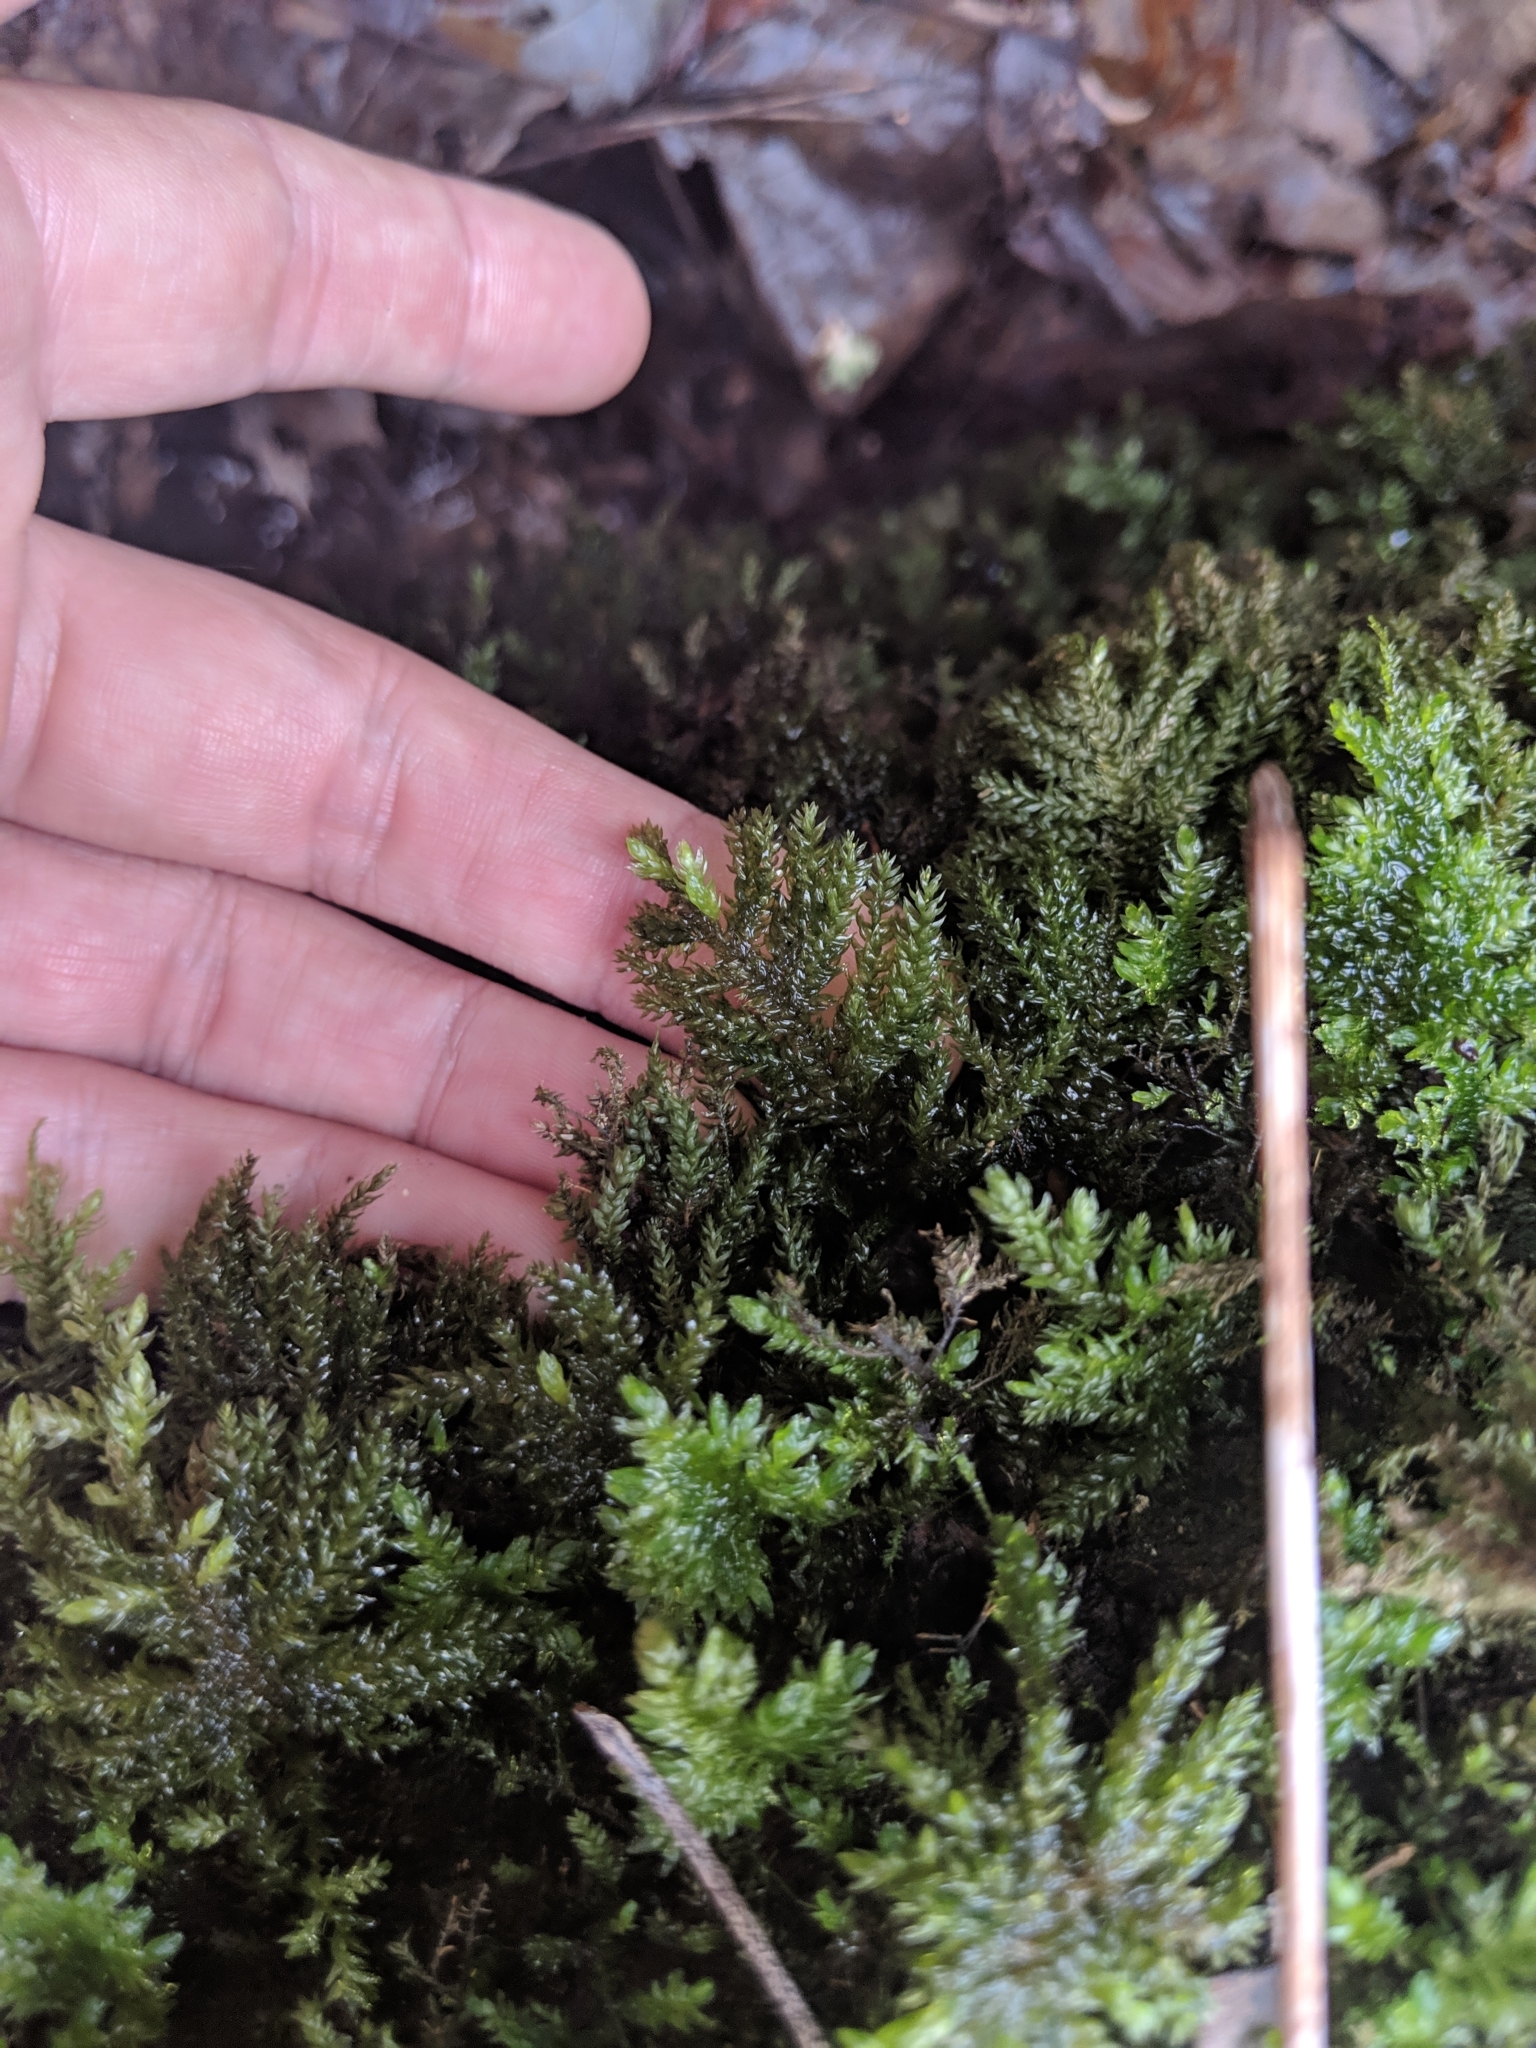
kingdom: Plantae
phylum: Bryophyta
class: Bryopsida
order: Hypnales
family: Neckeraceae
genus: Thamnobryum
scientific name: Thamnobryum subserratum
